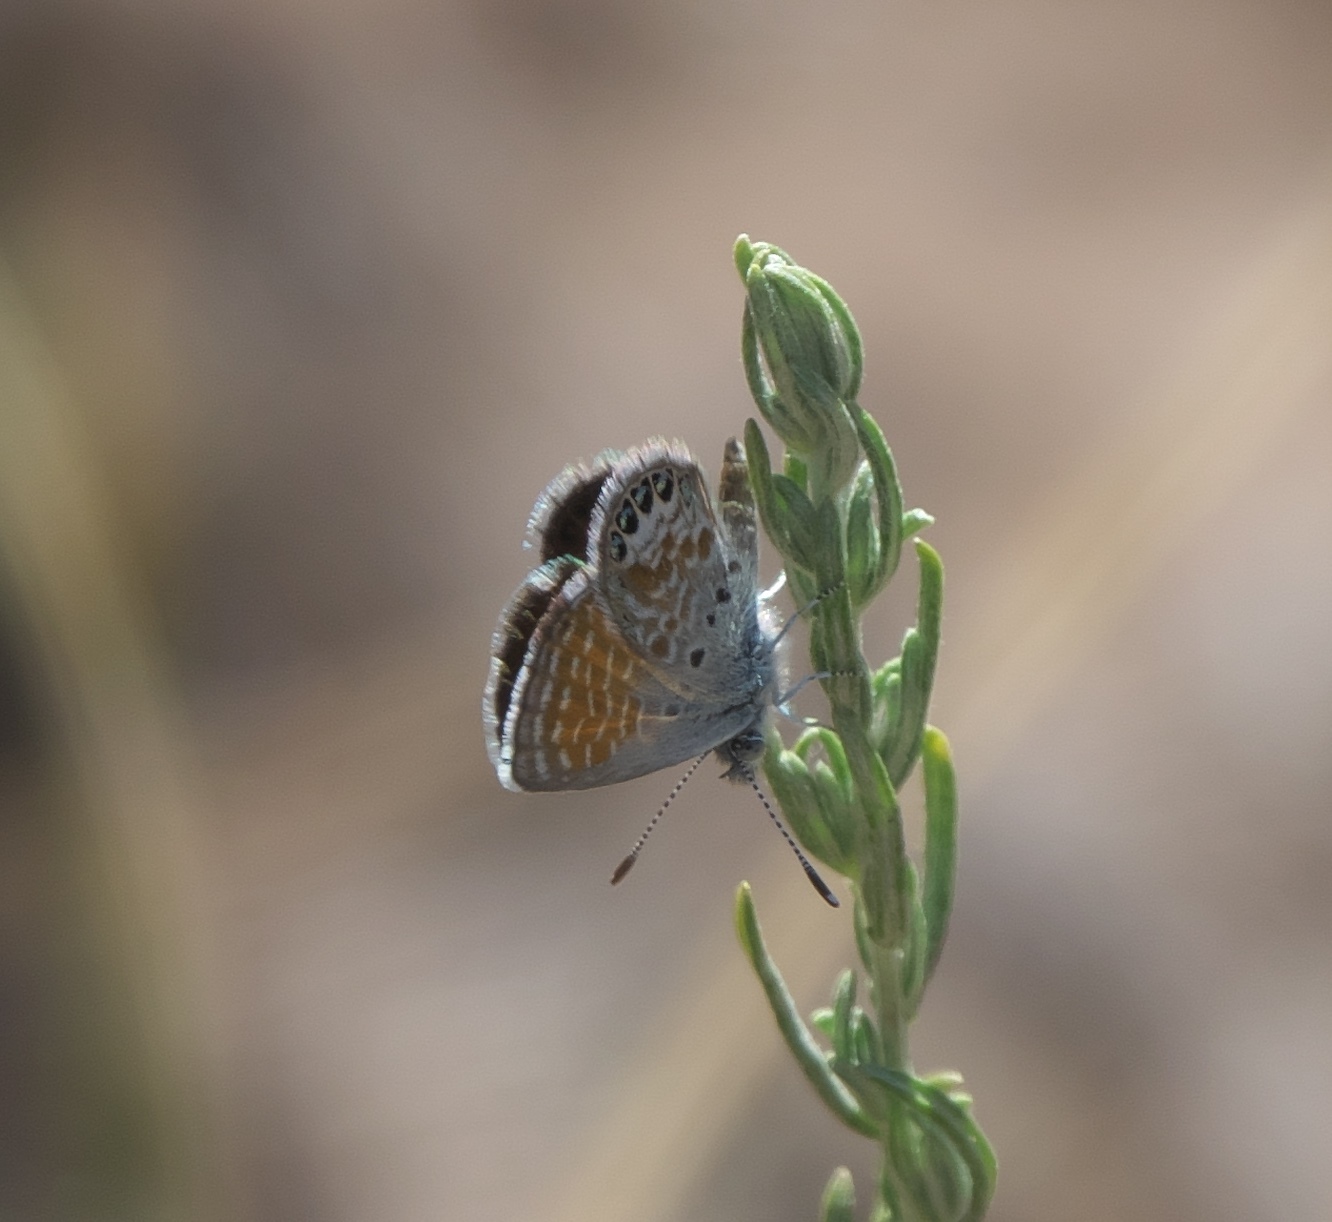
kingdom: Animalia
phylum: Arthropoda
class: Insecta
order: Lepidoptera
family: Lycaenidae
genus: Brephidium
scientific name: Brephidium exilis
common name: Pygmy blue
